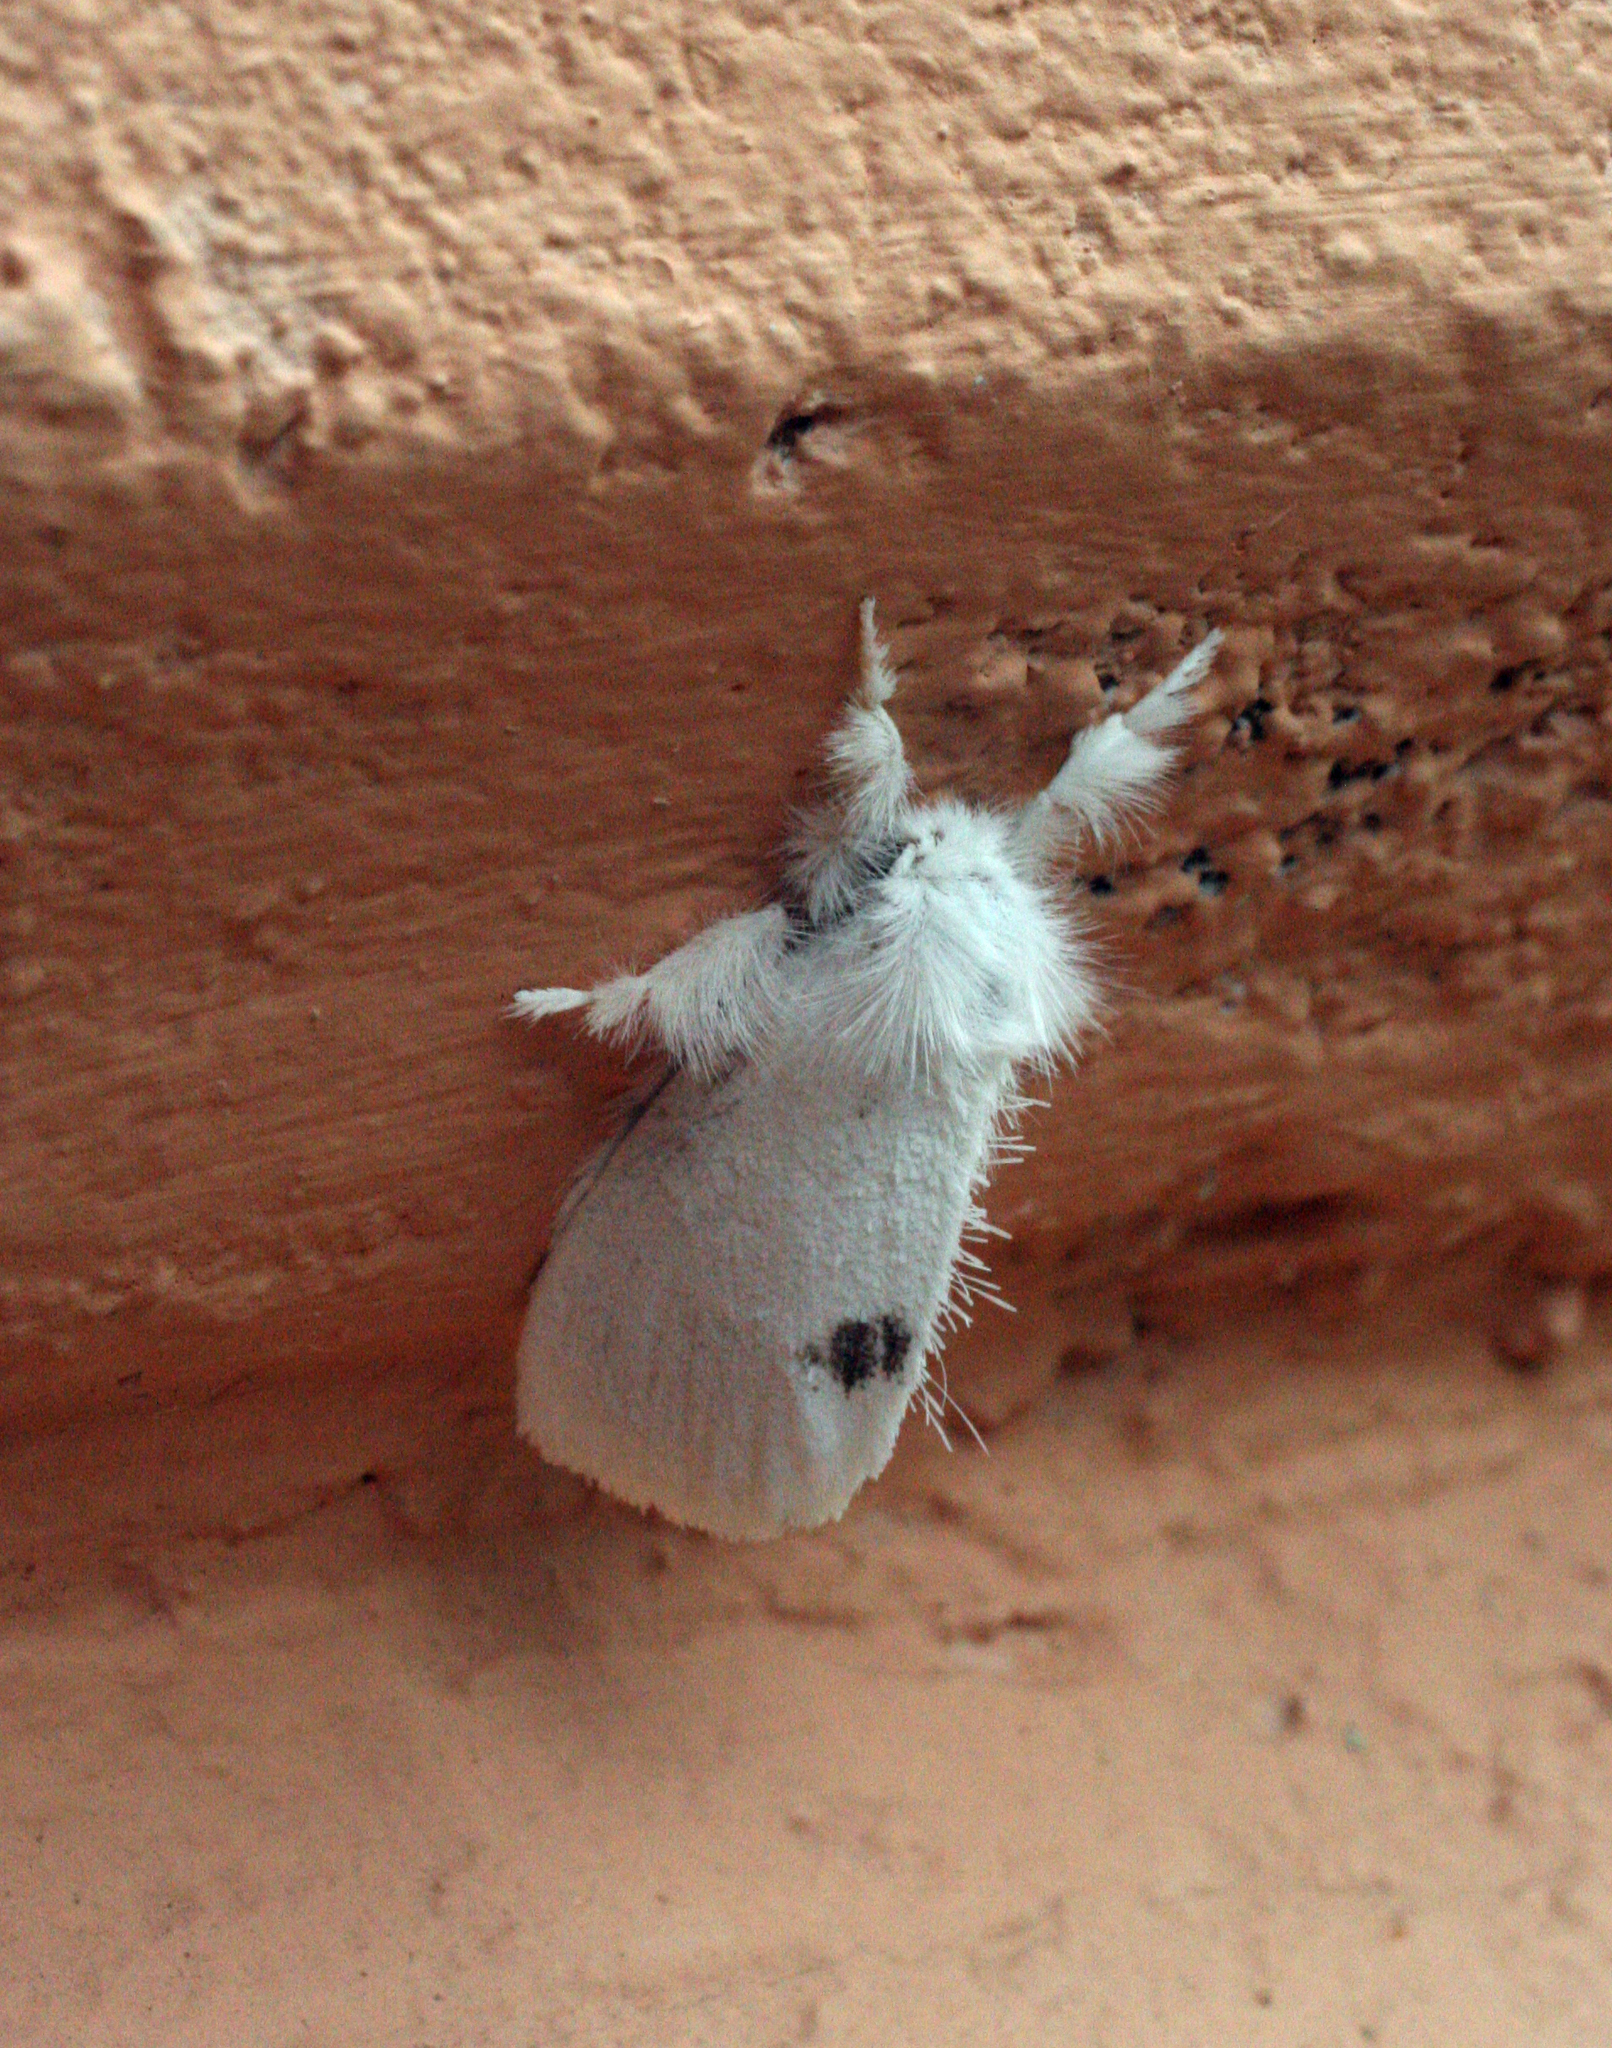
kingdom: Animalia
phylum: Arthropoda
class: Insecta
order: Lepidoptera
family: Erebidae
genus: Sphrageidus
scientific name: Sphrageidus similis
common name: Yellow-tail
